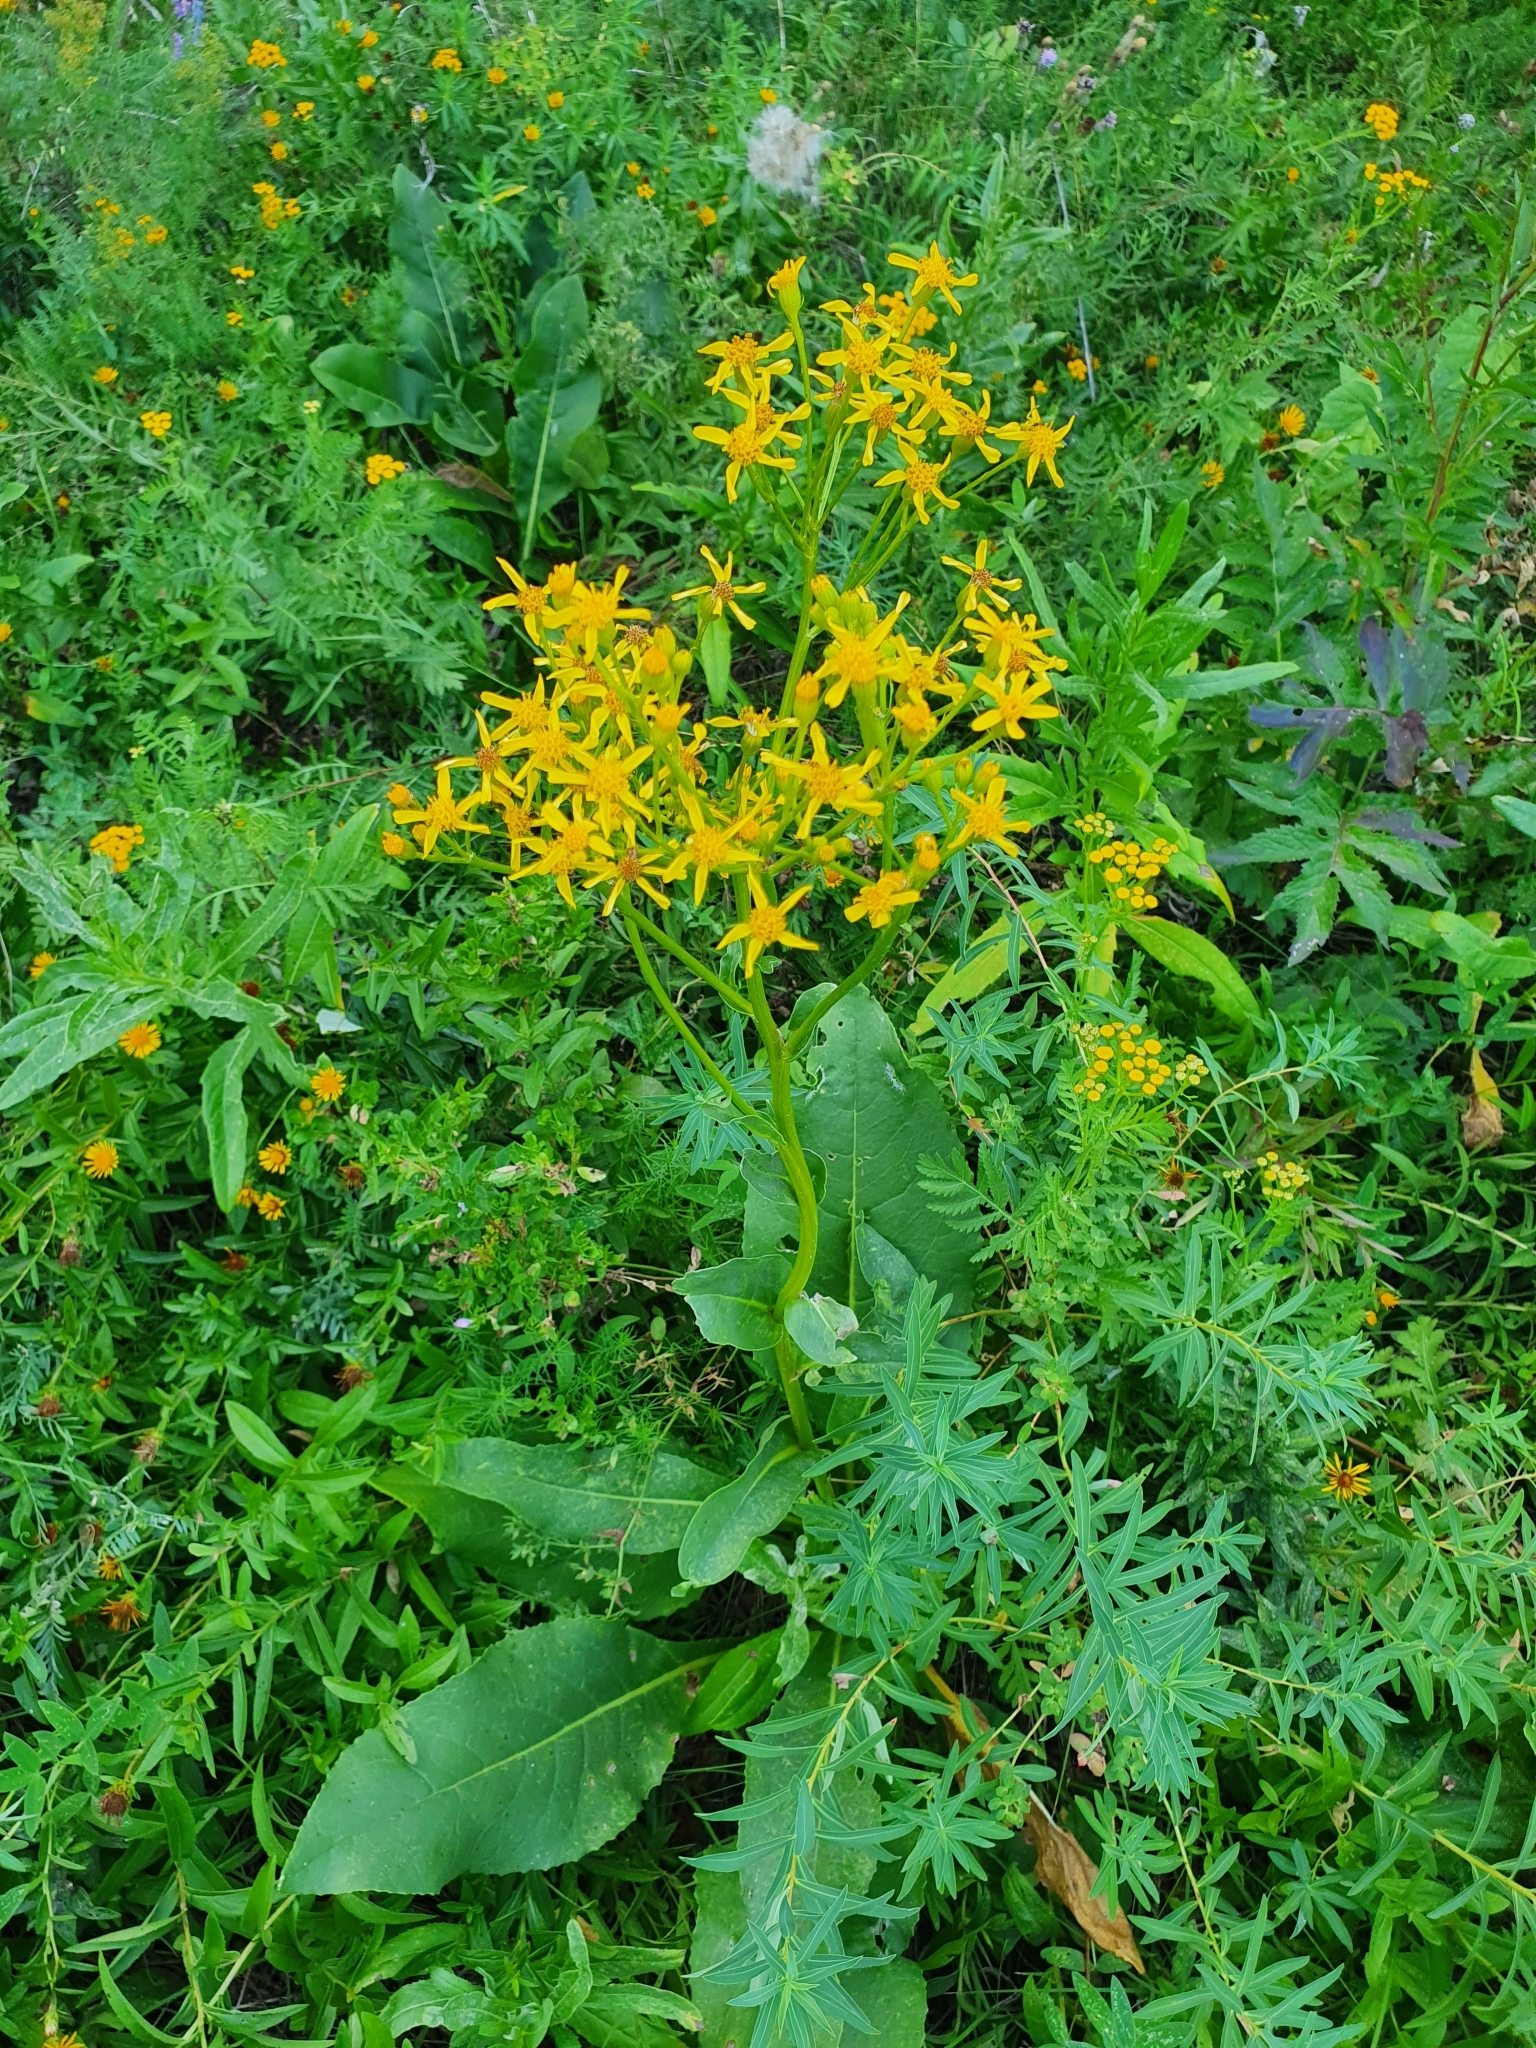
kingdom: Plantae
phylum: Tracheophyta
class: Magnoliopsida
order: Asterales
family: Asteraceae
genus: Senecio
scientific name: Senecio doria
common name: Golden ragwort
